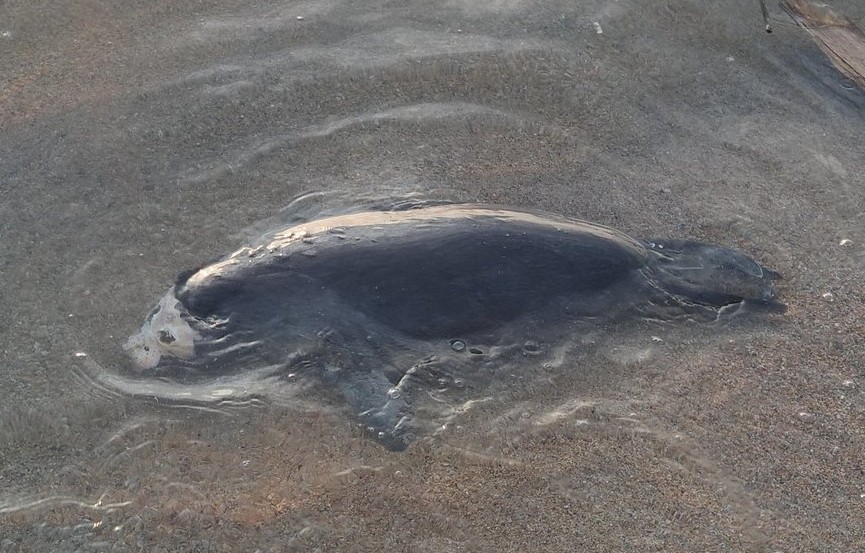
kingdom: Animalia
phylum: Chordata
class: Mammalia
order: Carnivora
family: Phocidae
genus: Pusa
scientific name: Pusa sibirica
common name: Baikal seal
